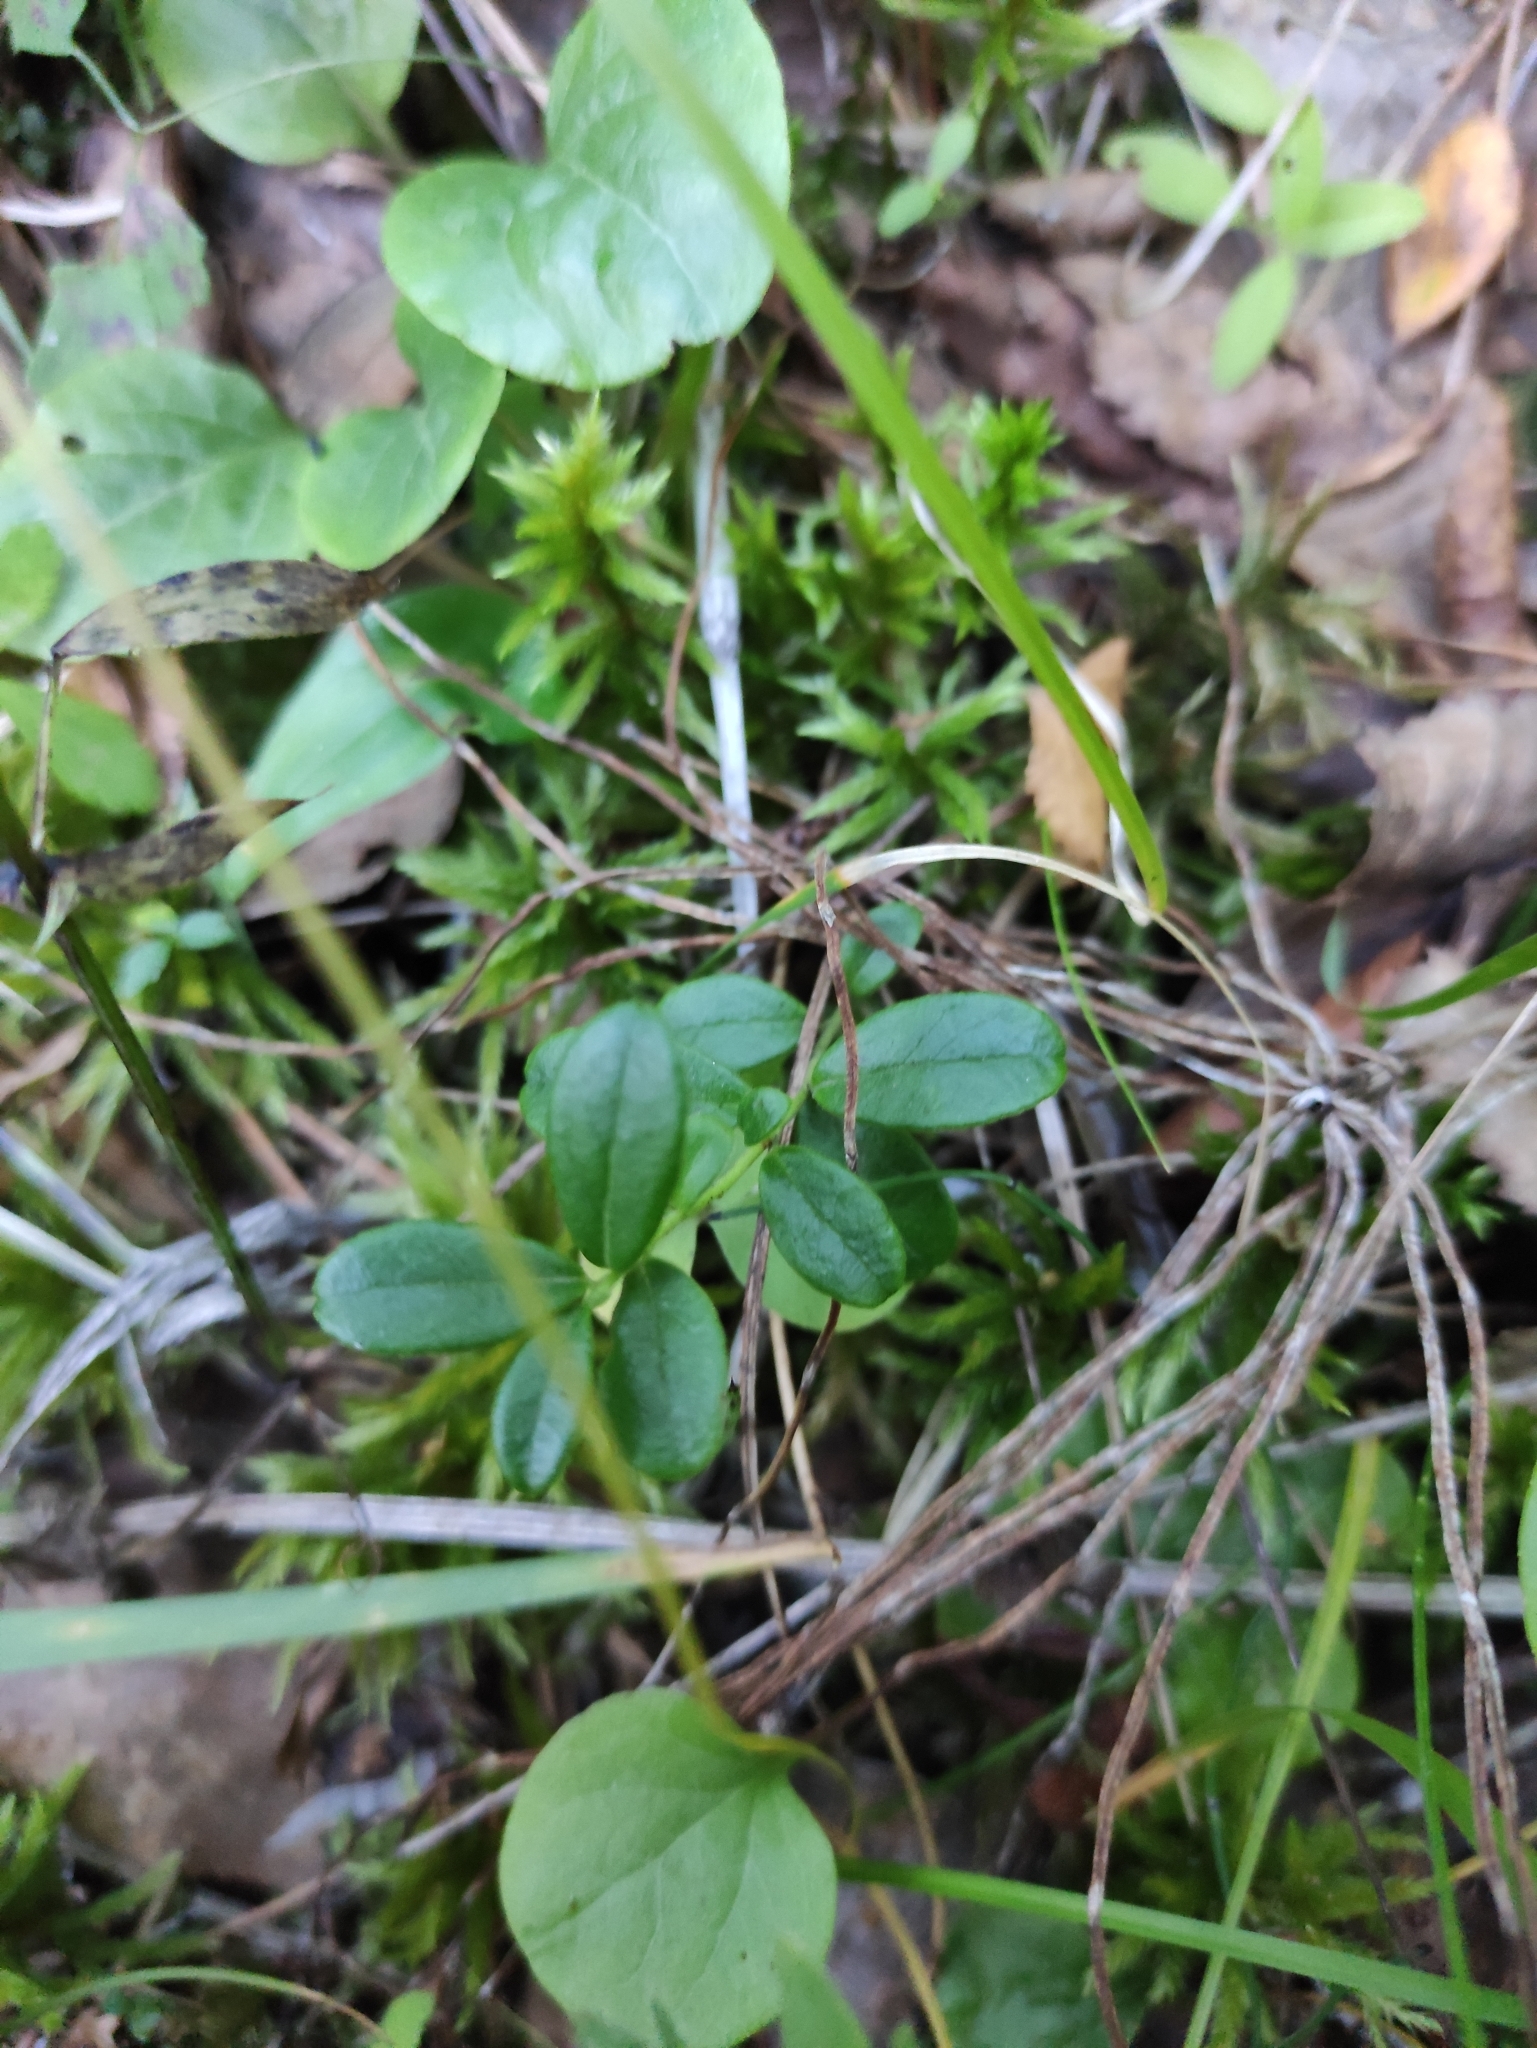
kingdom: Plantae
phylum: Tracheophyta
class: Magnoliopsida
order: Ericales
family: Ericaceae
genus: Vaccinium
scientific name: Vaccinium vitis-idaea
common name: Cowberry
